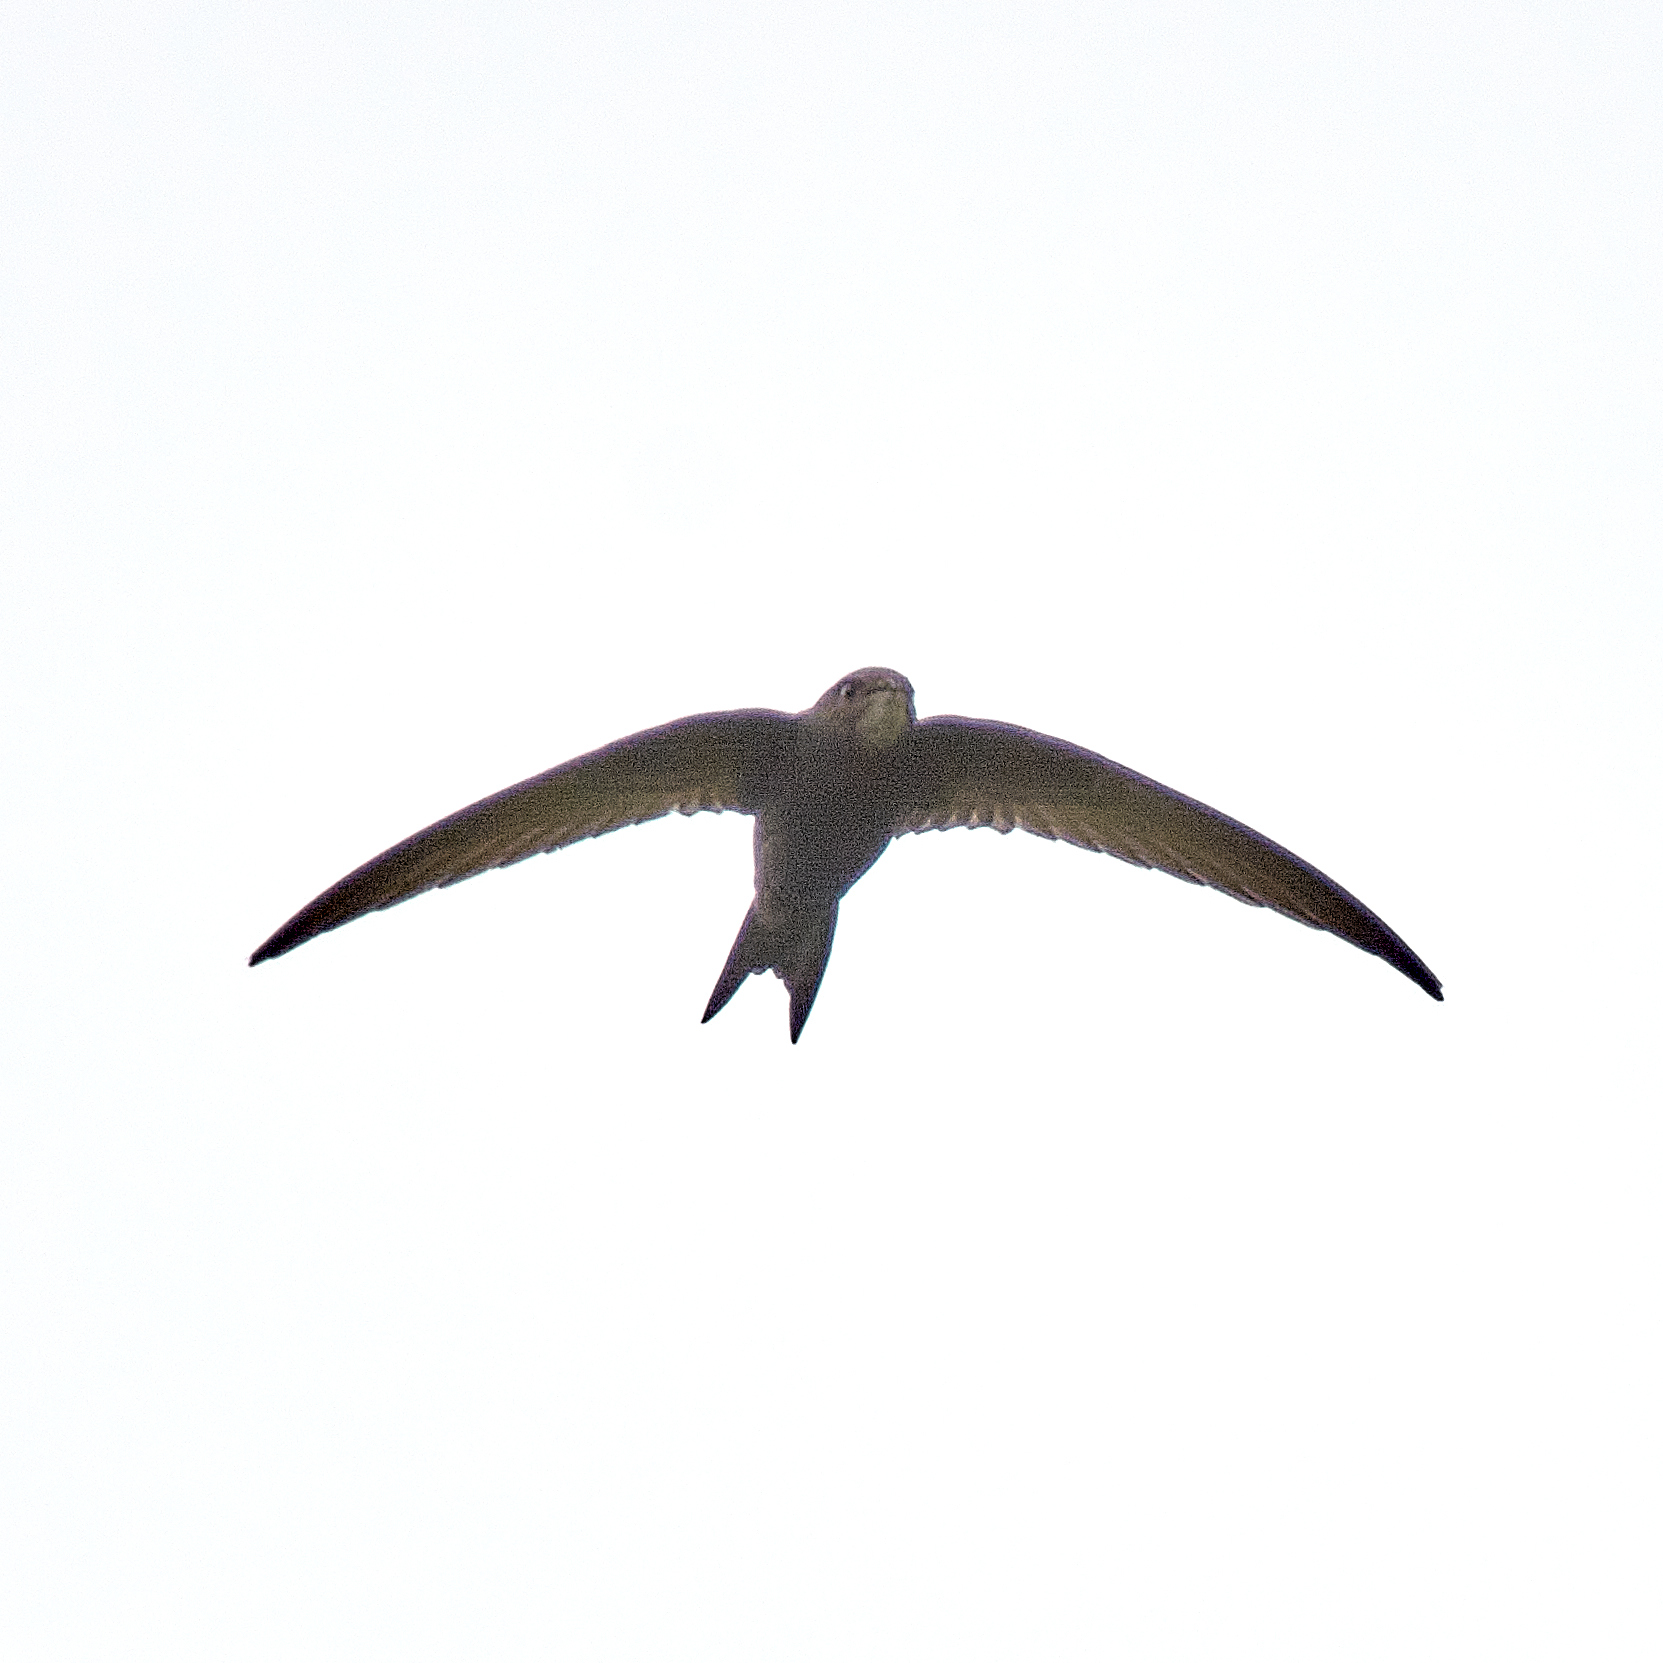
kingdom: Animalia
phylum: Chordata
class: Aves
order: Apodiformes
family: Apodidae
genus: Apus
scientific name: Apus apus
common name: Common swift
